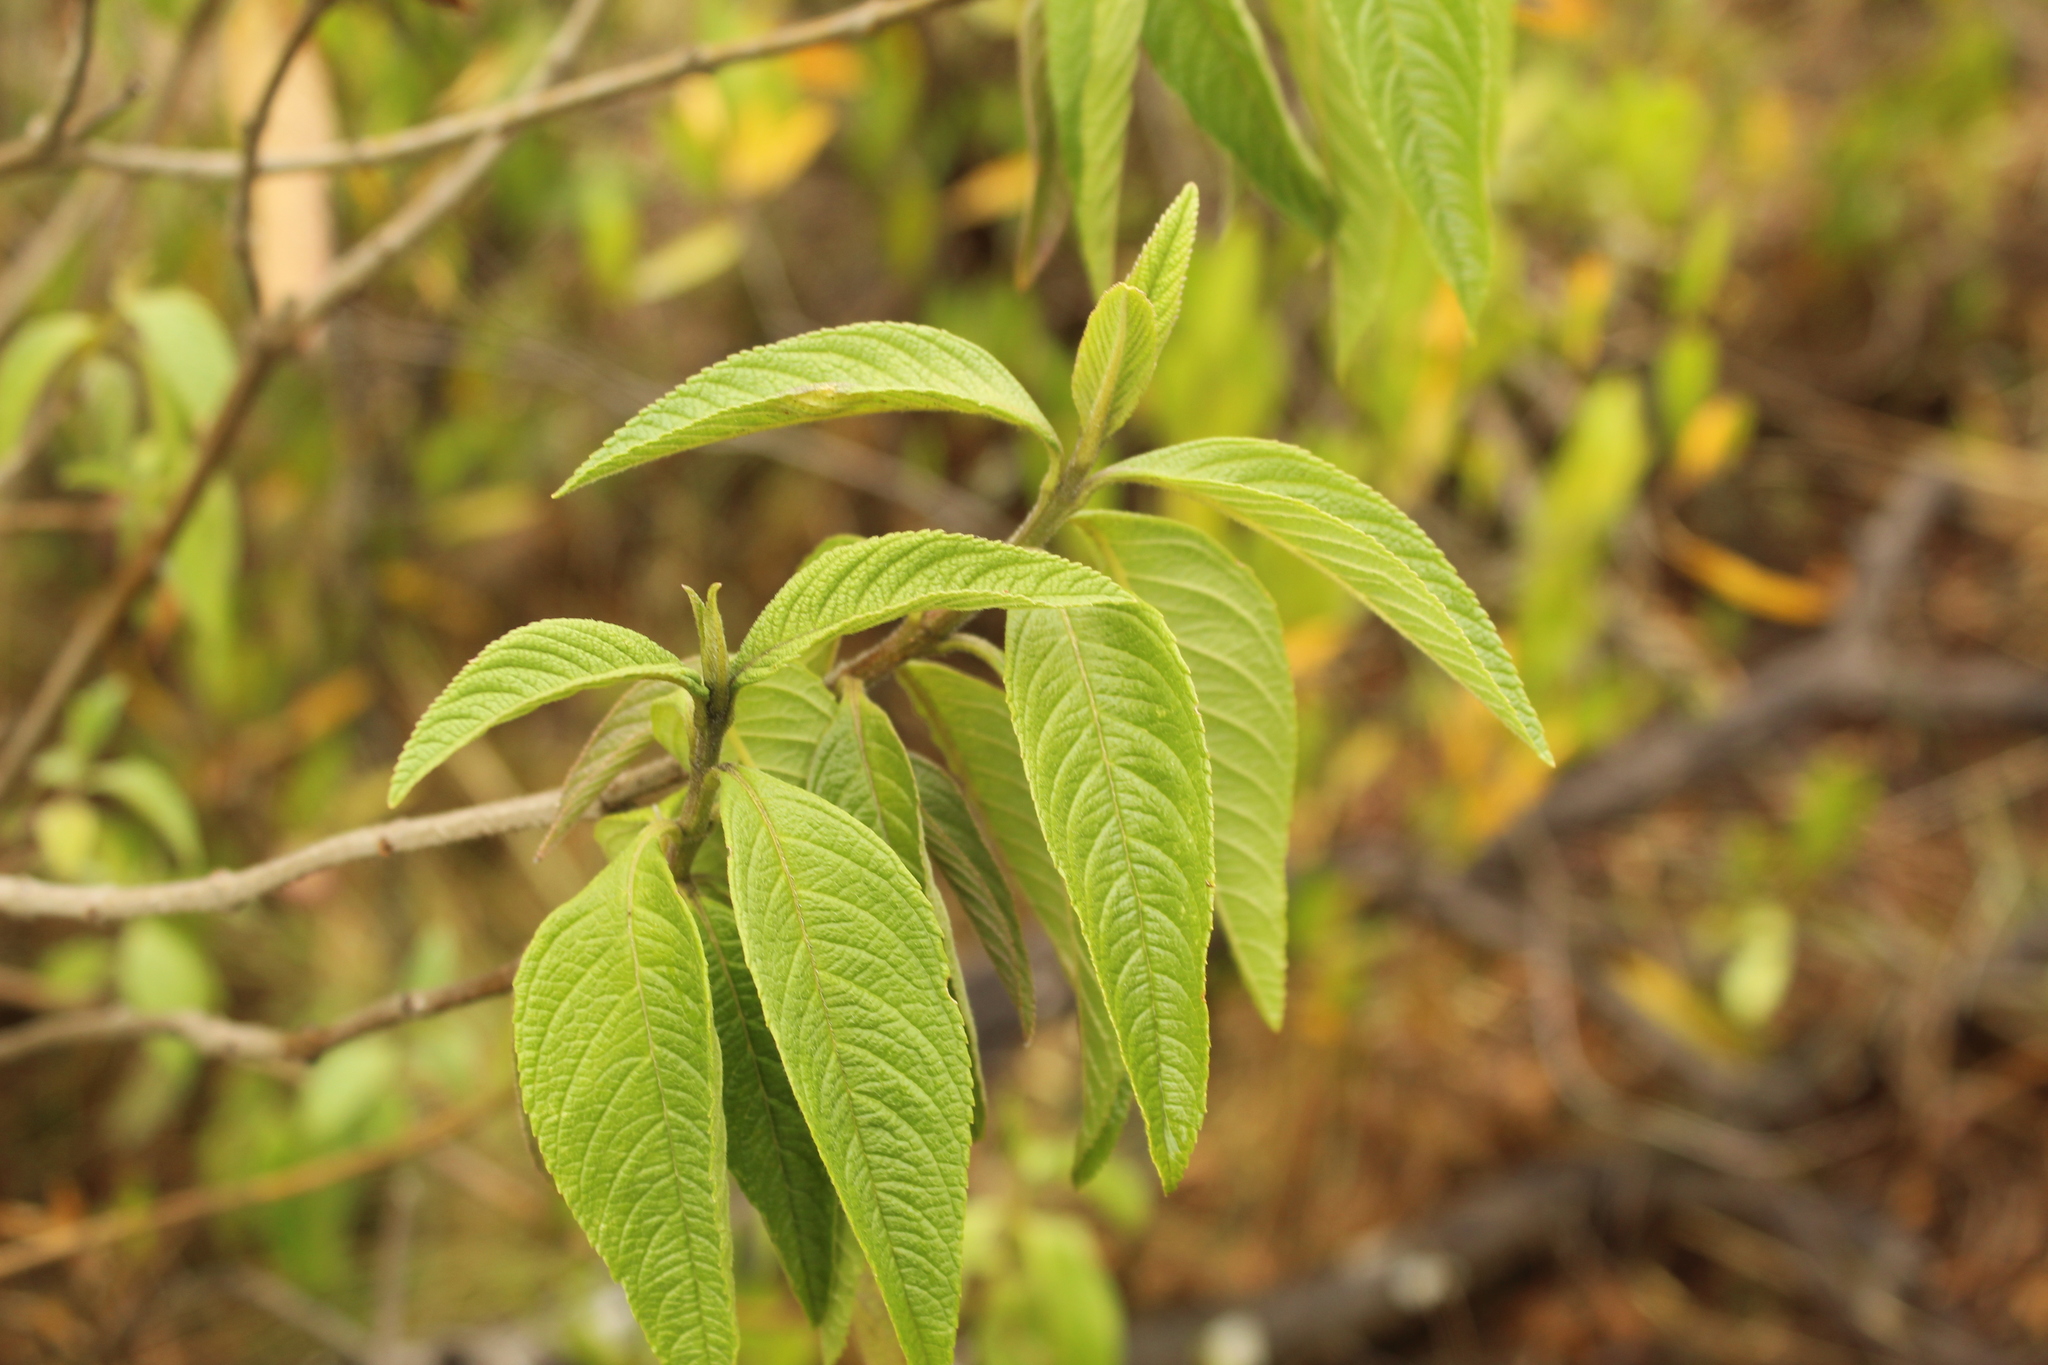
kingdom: Plantae
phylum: Tracheophyta
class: Magnoliopsida
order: Lamiales
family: Verbenaceae
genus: Lippia
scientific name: Lippia hirsuta
